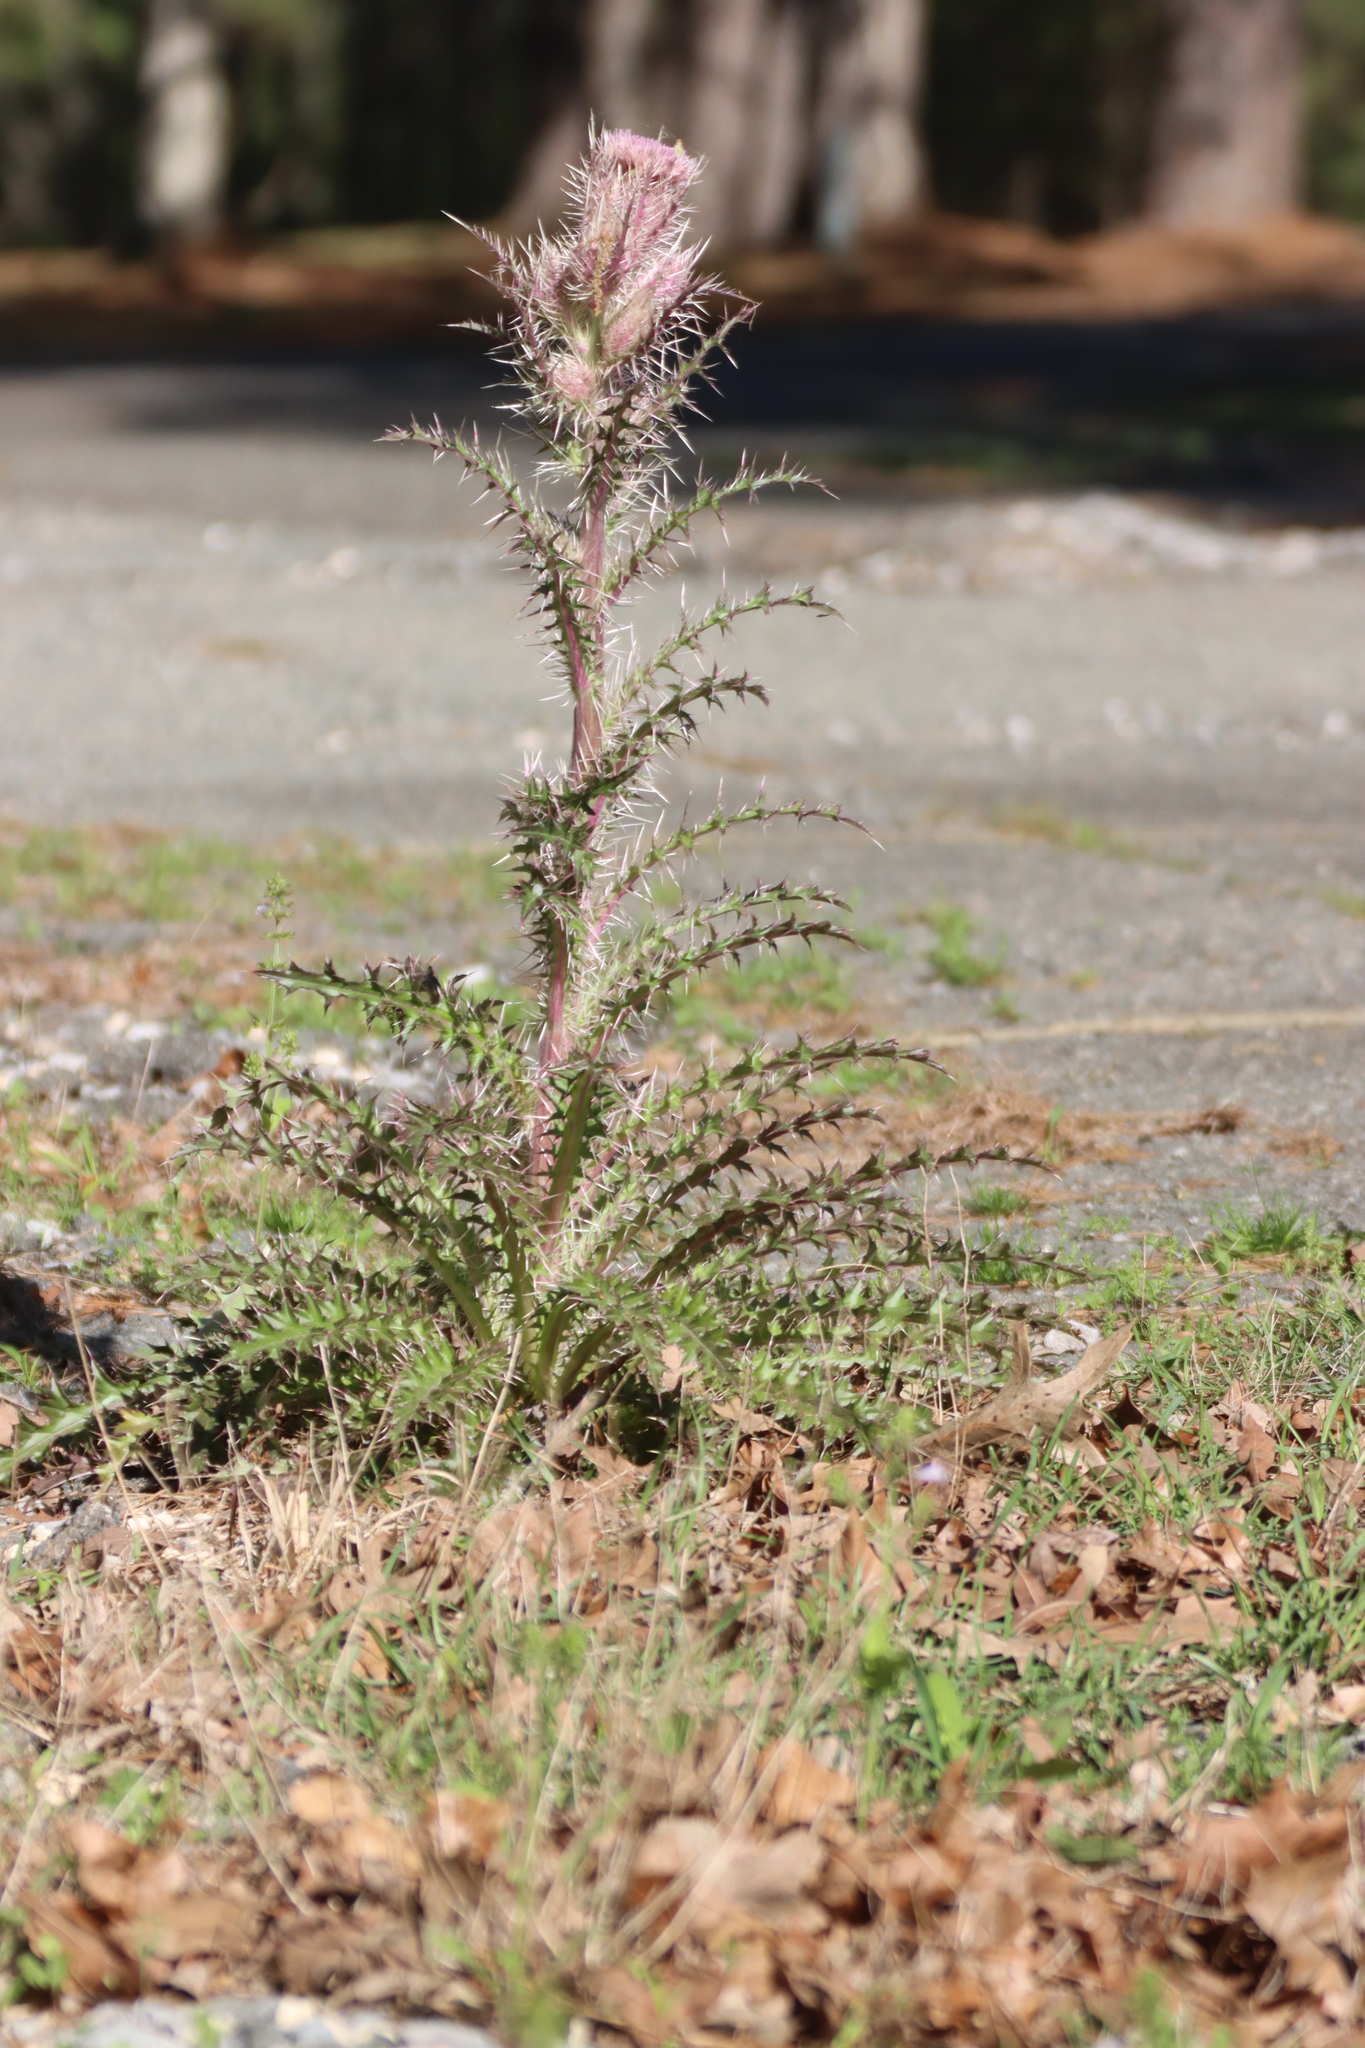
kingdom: Plantae
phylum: Tracheophyta
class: Magnoliopsida
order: Asterales
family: Asteraceae
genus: Cirsium
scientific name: Cirsium horridulum
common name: Bristly thistle
